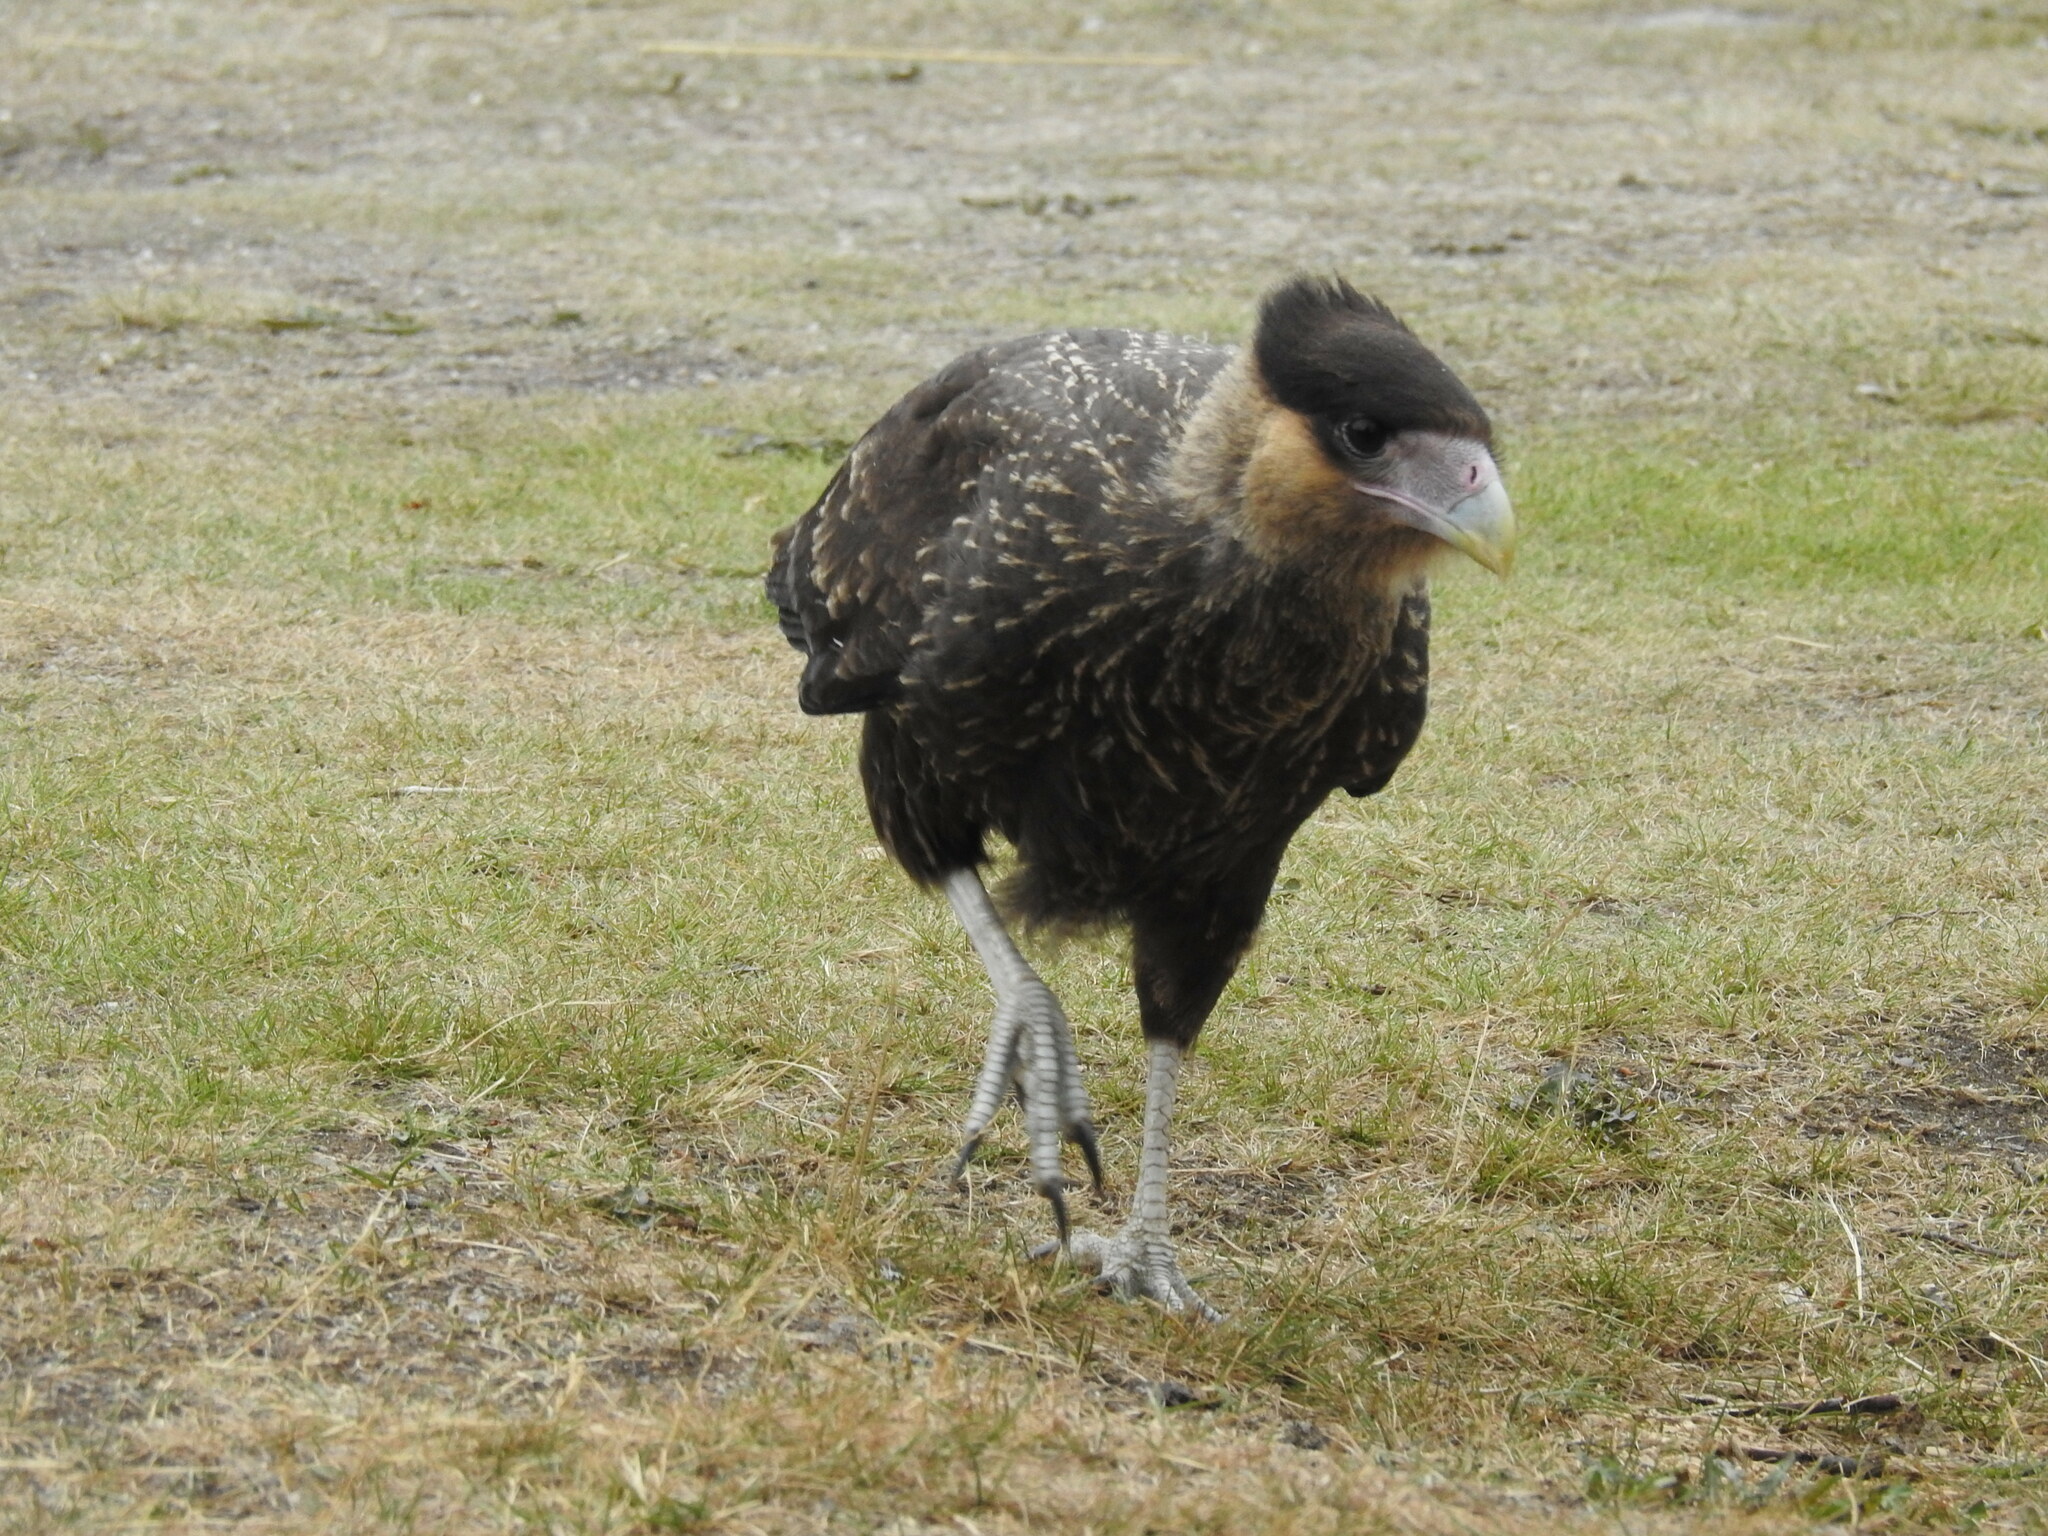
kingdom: Animalia
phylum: Chordata
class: Aves
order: Falconiformes
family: Falconidae
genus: Caracara
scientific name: Caracara plancus
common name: Southern caracara
